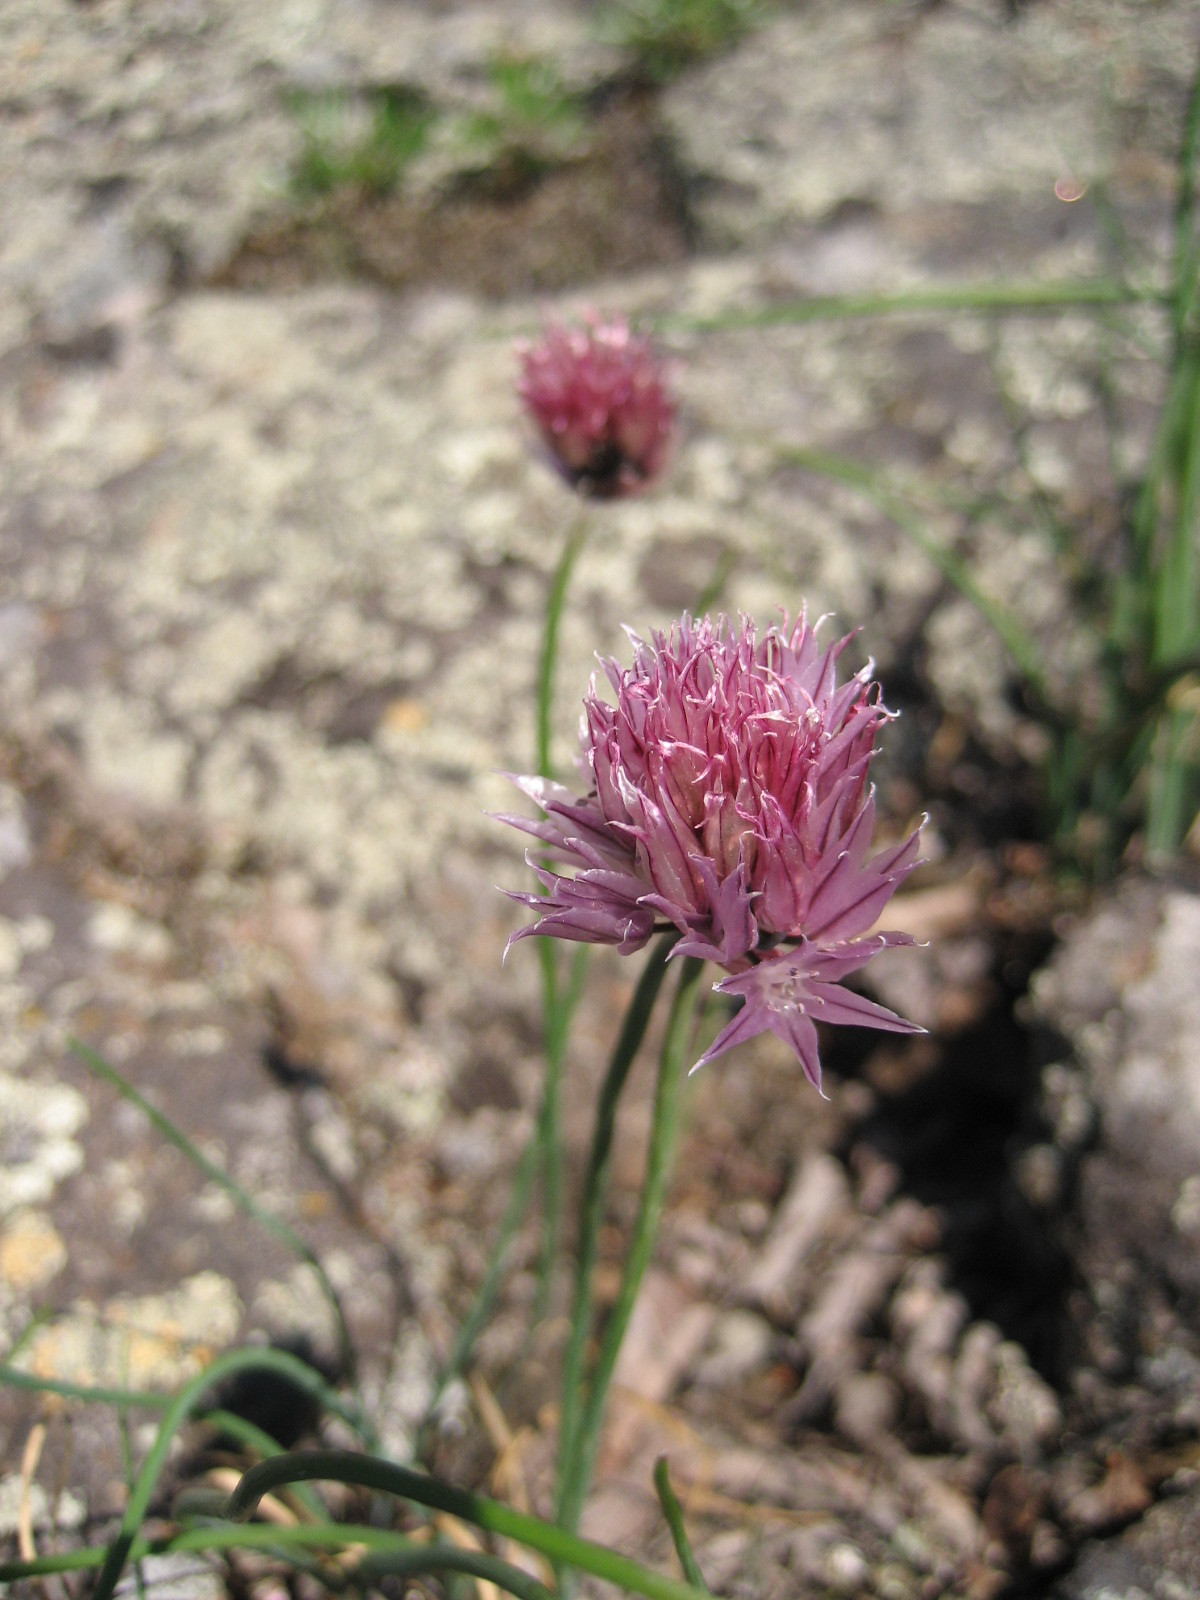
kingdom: Plantae
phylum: Tracheophyta
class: Liliopsida
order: Asparagales
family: Amaryllidaceae
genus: Allium
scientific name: Allium schoenoprasum
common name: Chives
